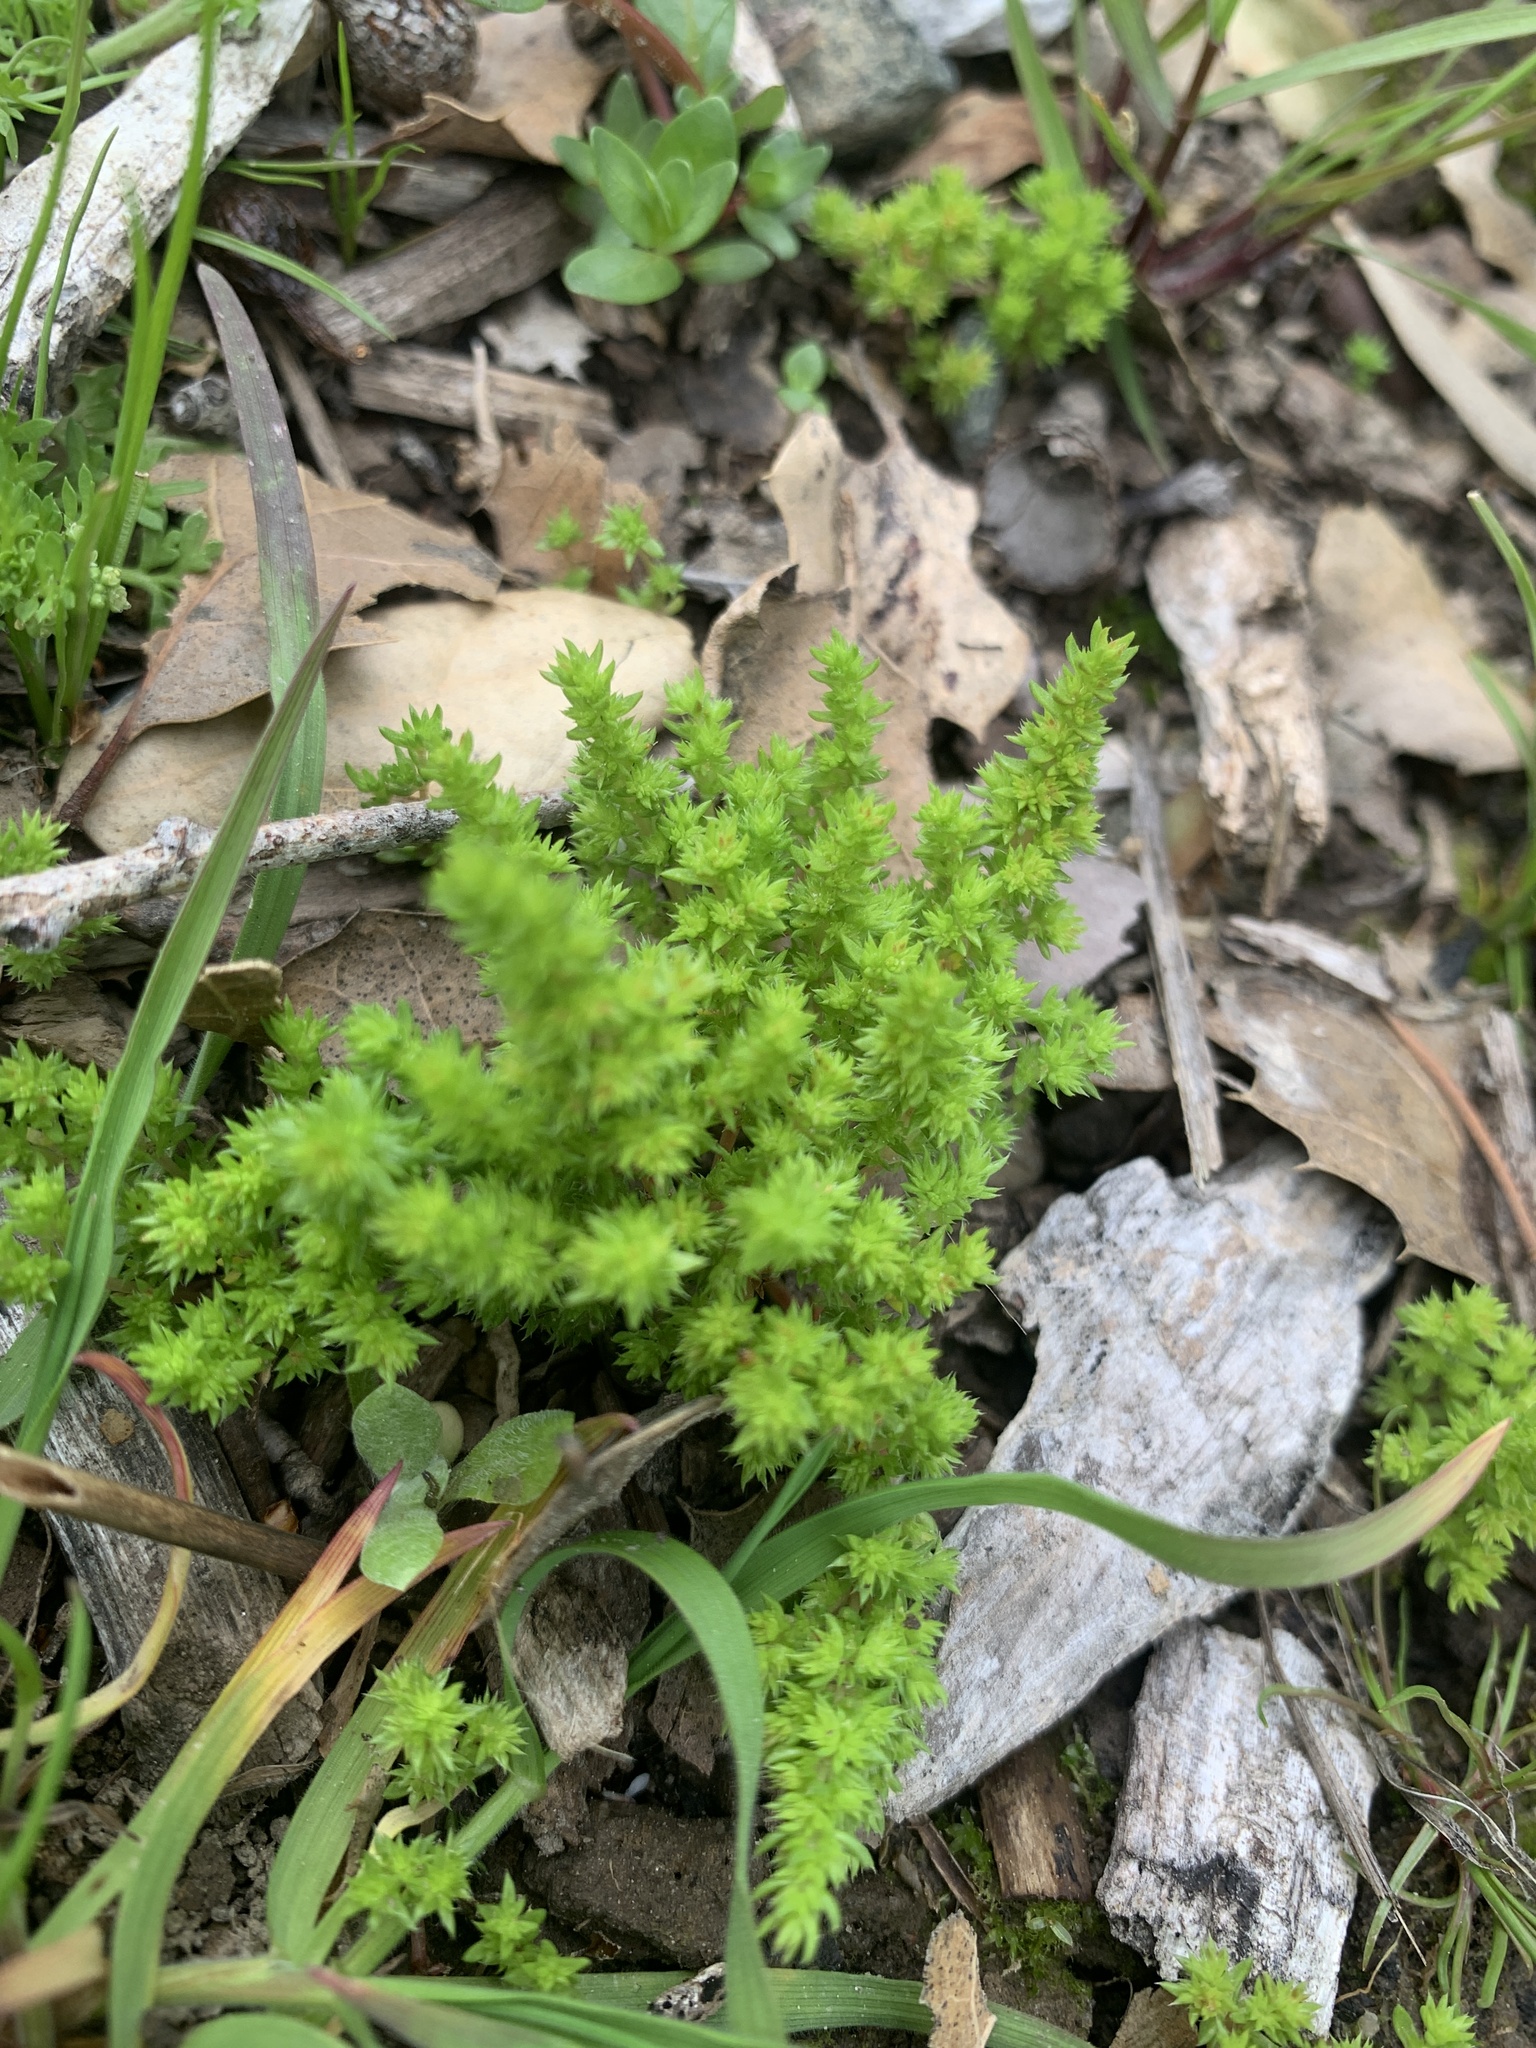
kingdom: Plantae
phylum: Tracheophyta
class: Magnoliopsida
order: Saxifragales
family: Crassulaceae
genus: Crassula
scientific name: Crassula tillaea
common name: Mossy stonecrop
